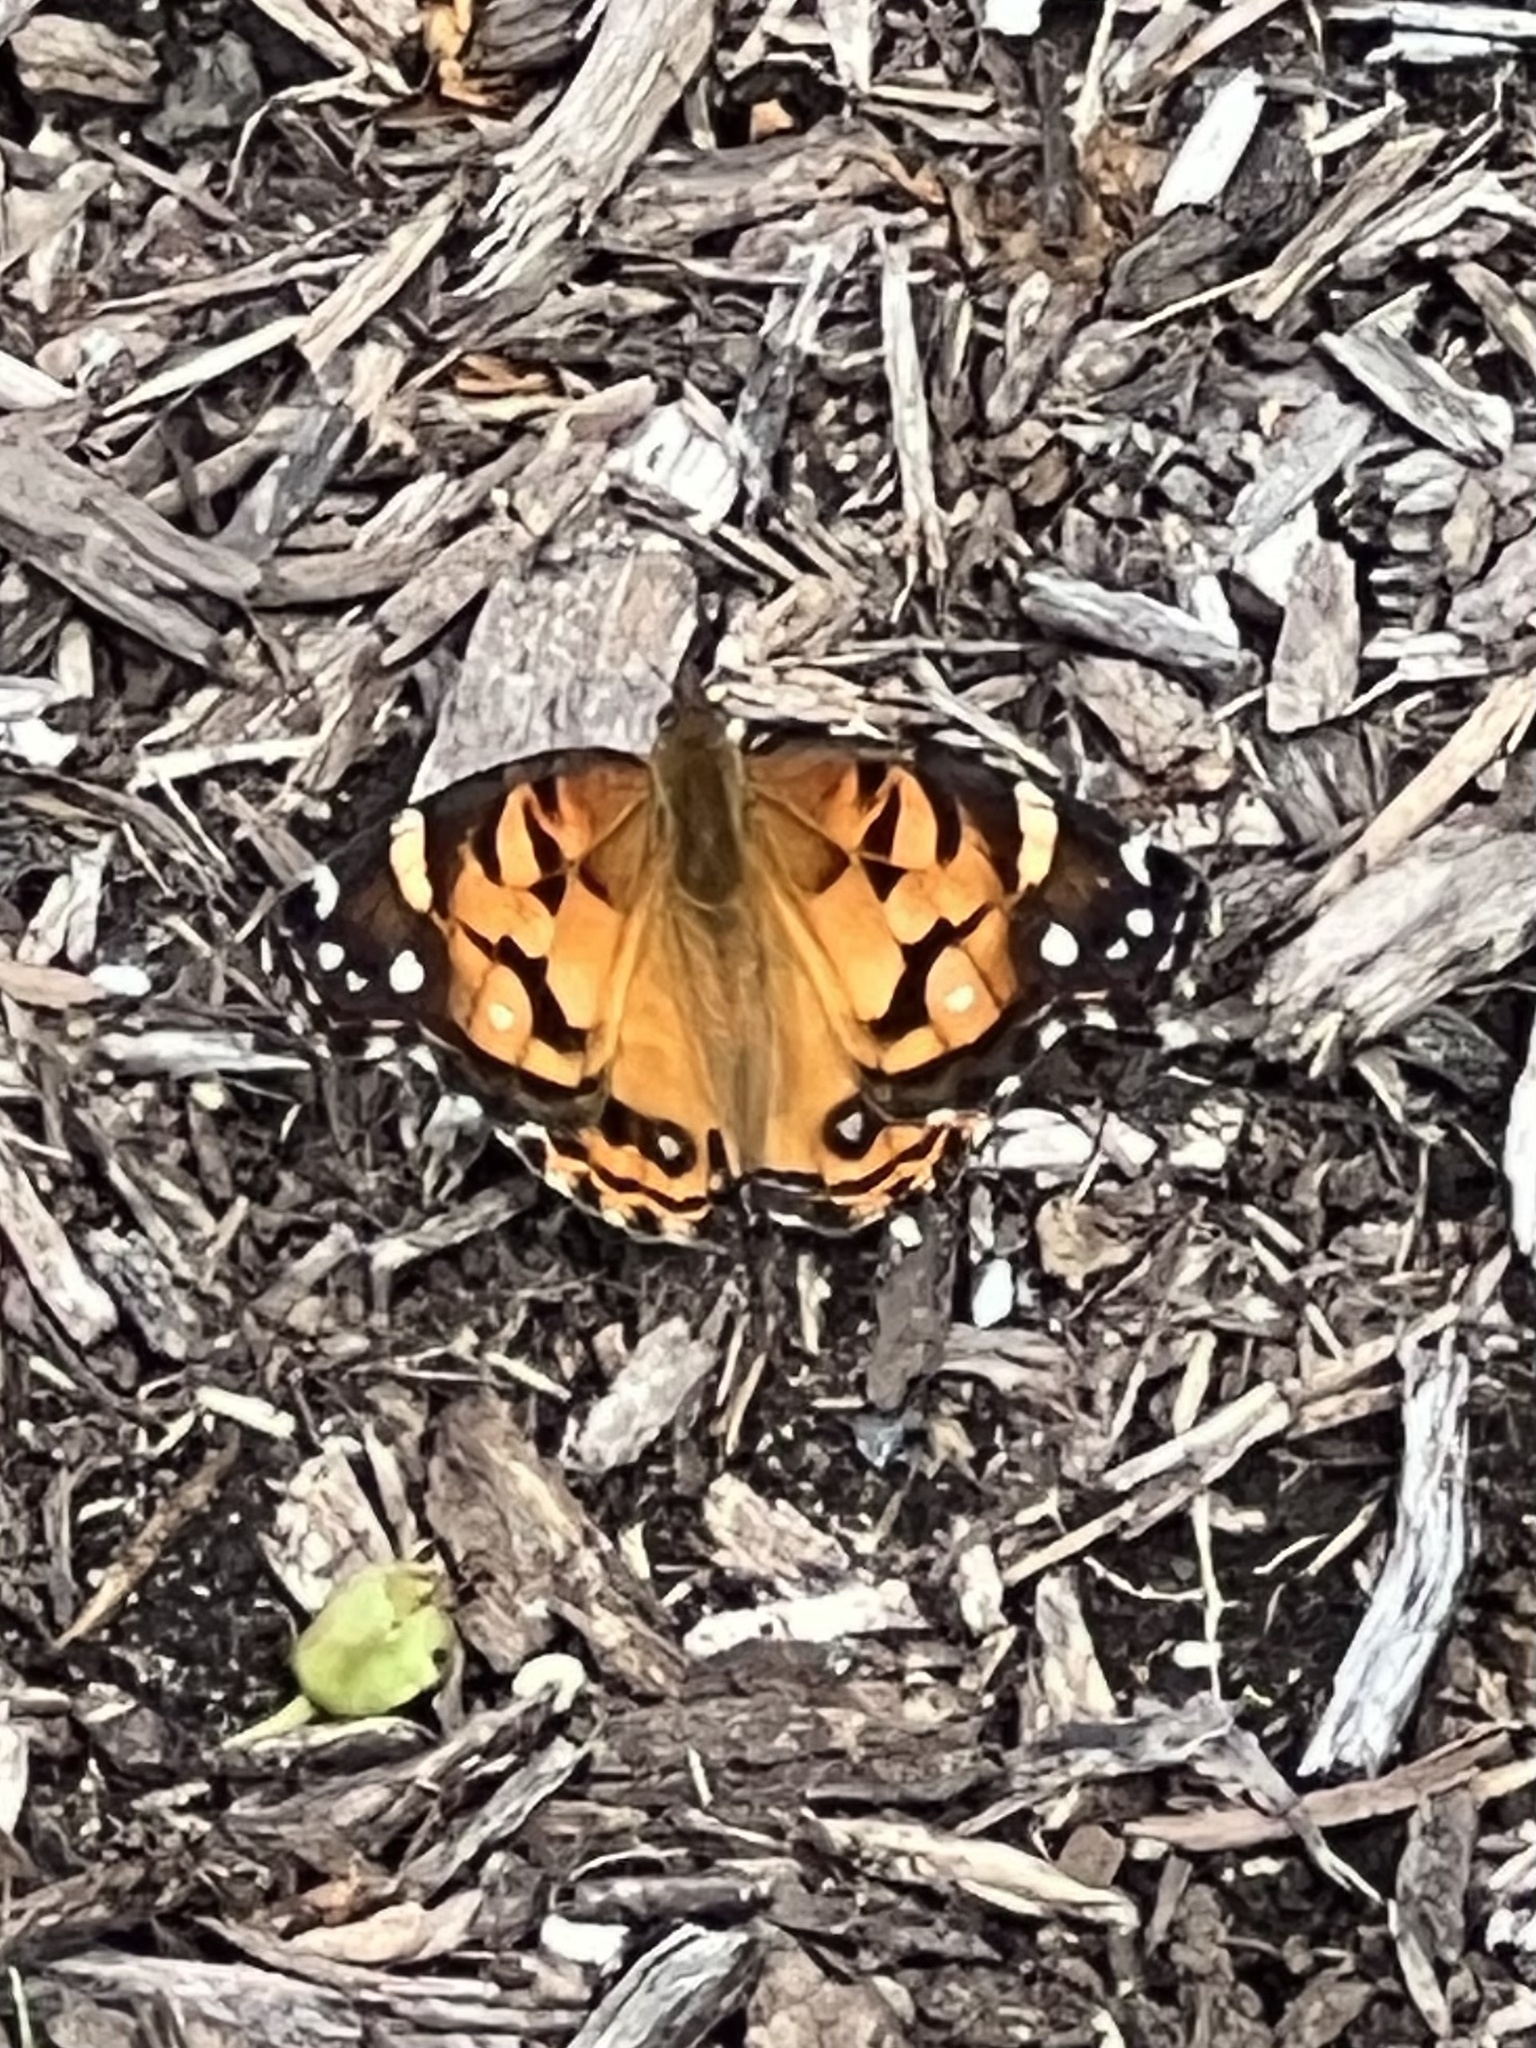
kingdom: Animalia
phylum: Arthropoda
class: Insecta
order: Lepidoptera
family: Nymphalidae
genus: Vanessa
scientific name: Vanessa virginiensis
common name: American lady
